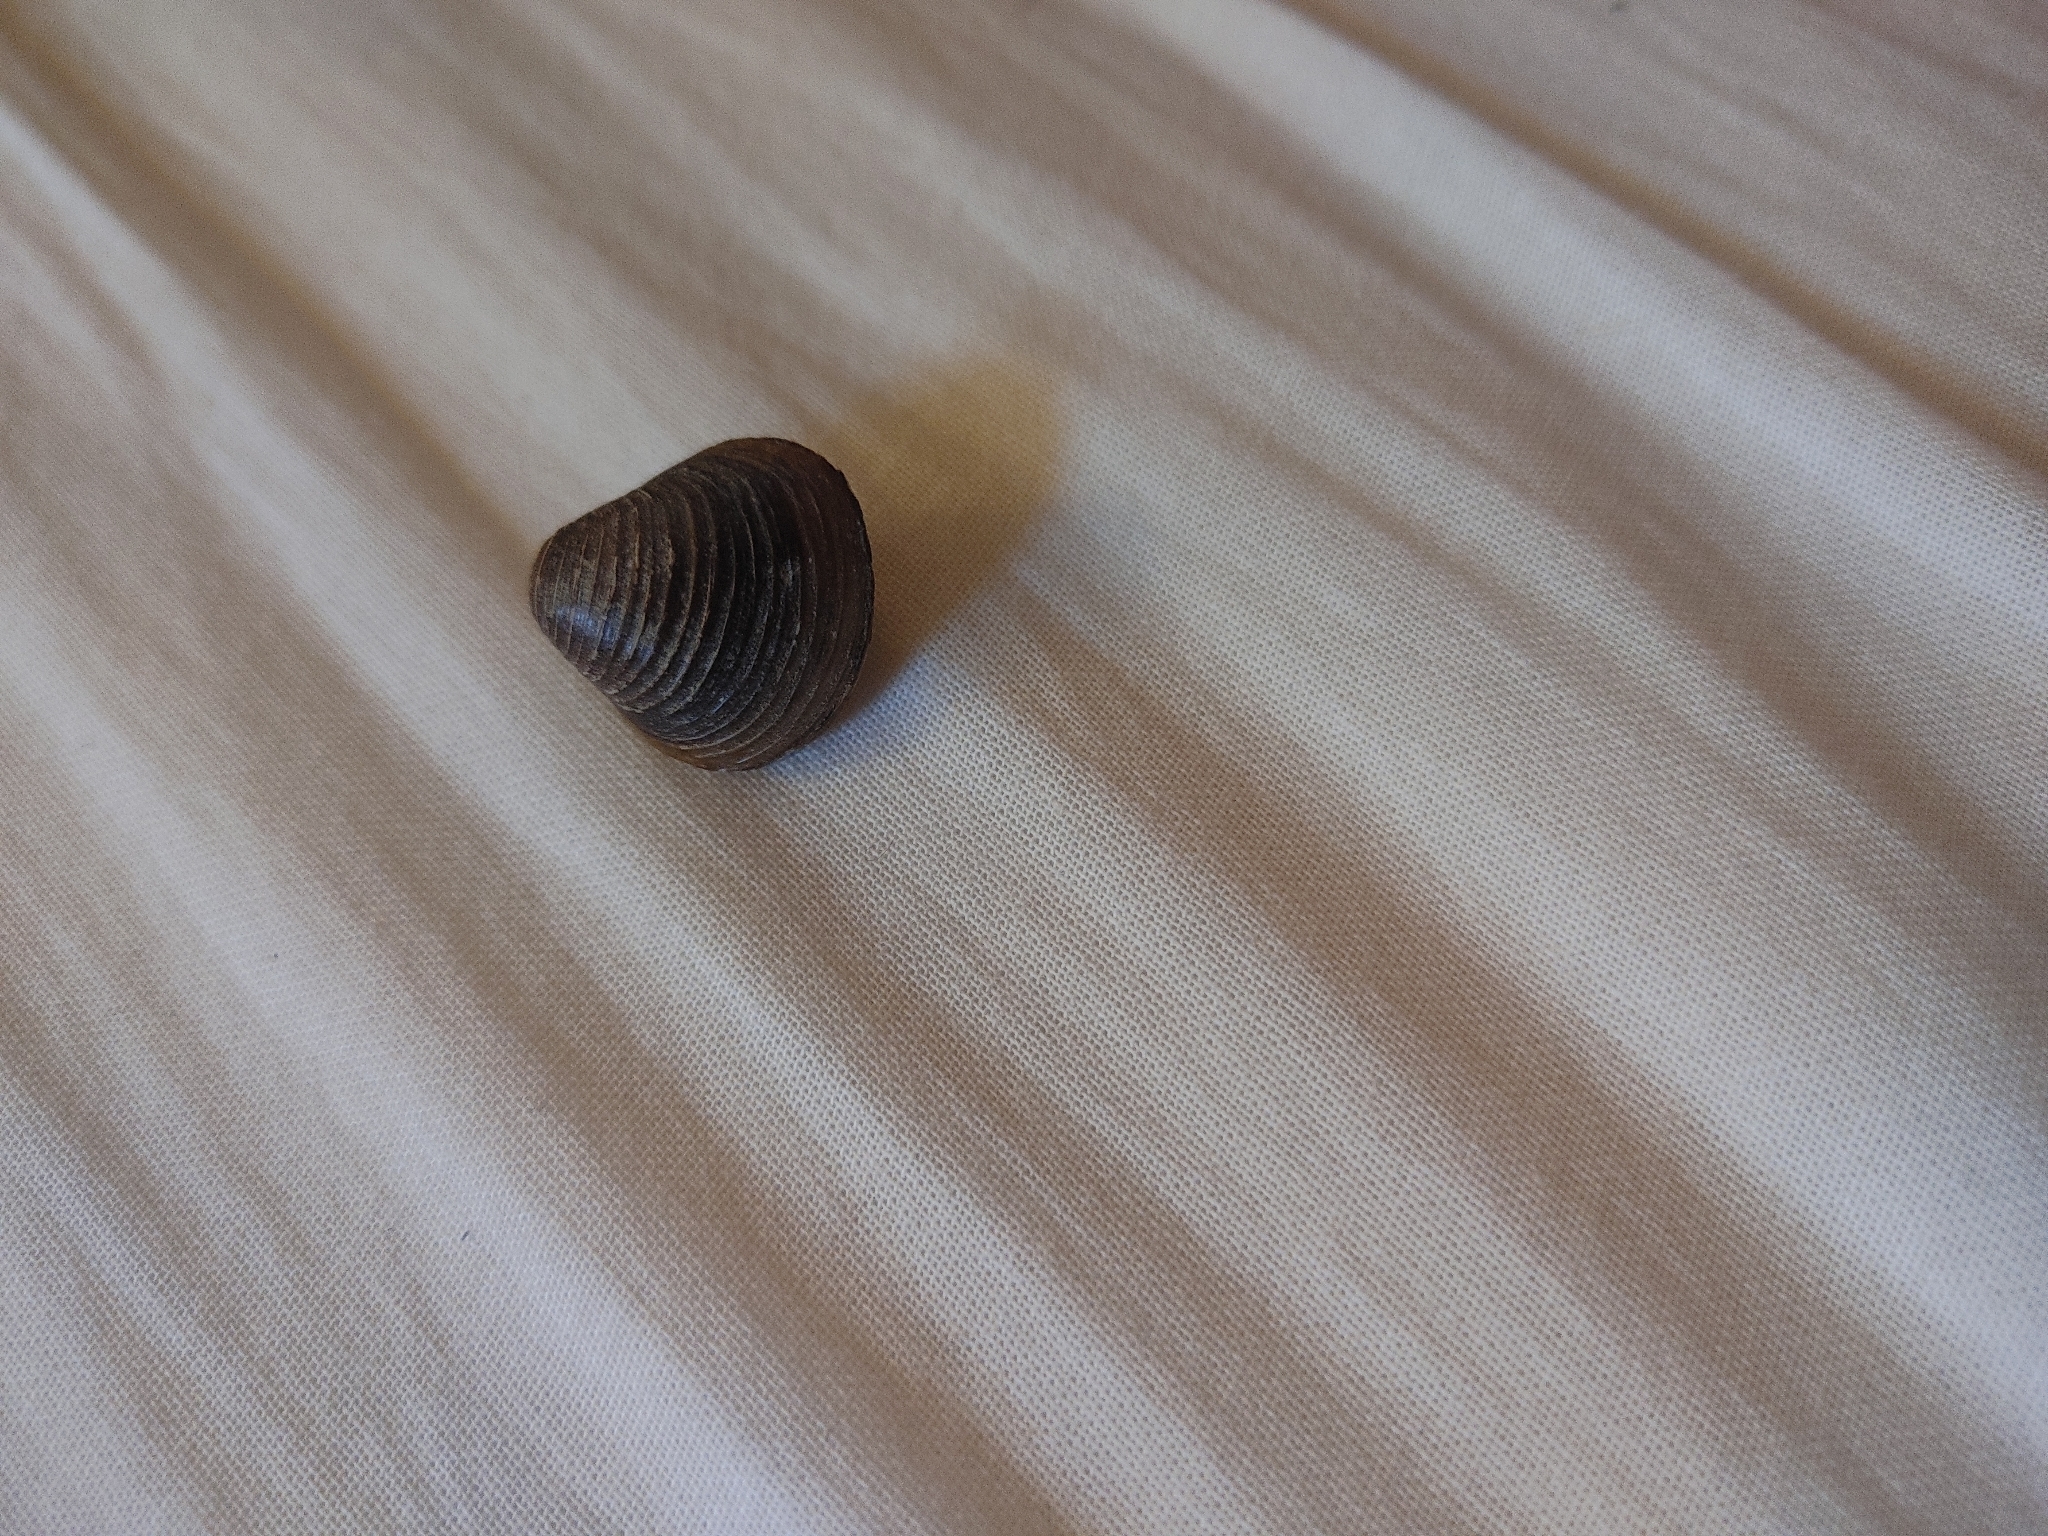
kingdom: Animalia
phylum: Mollusca
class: Bivalvia
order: Venerida
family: Cyrenidae
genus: Corbicula
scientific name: Corbicula fluminea
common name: Asian clam
